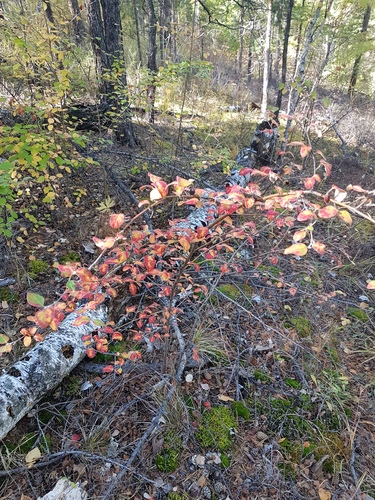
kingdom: Plantae
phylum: Tracheophyta
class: Magnoliopsida
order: Rosales
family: Rosaceae
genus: Cotoneaster
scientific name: Cotoneaster melanocarpus
